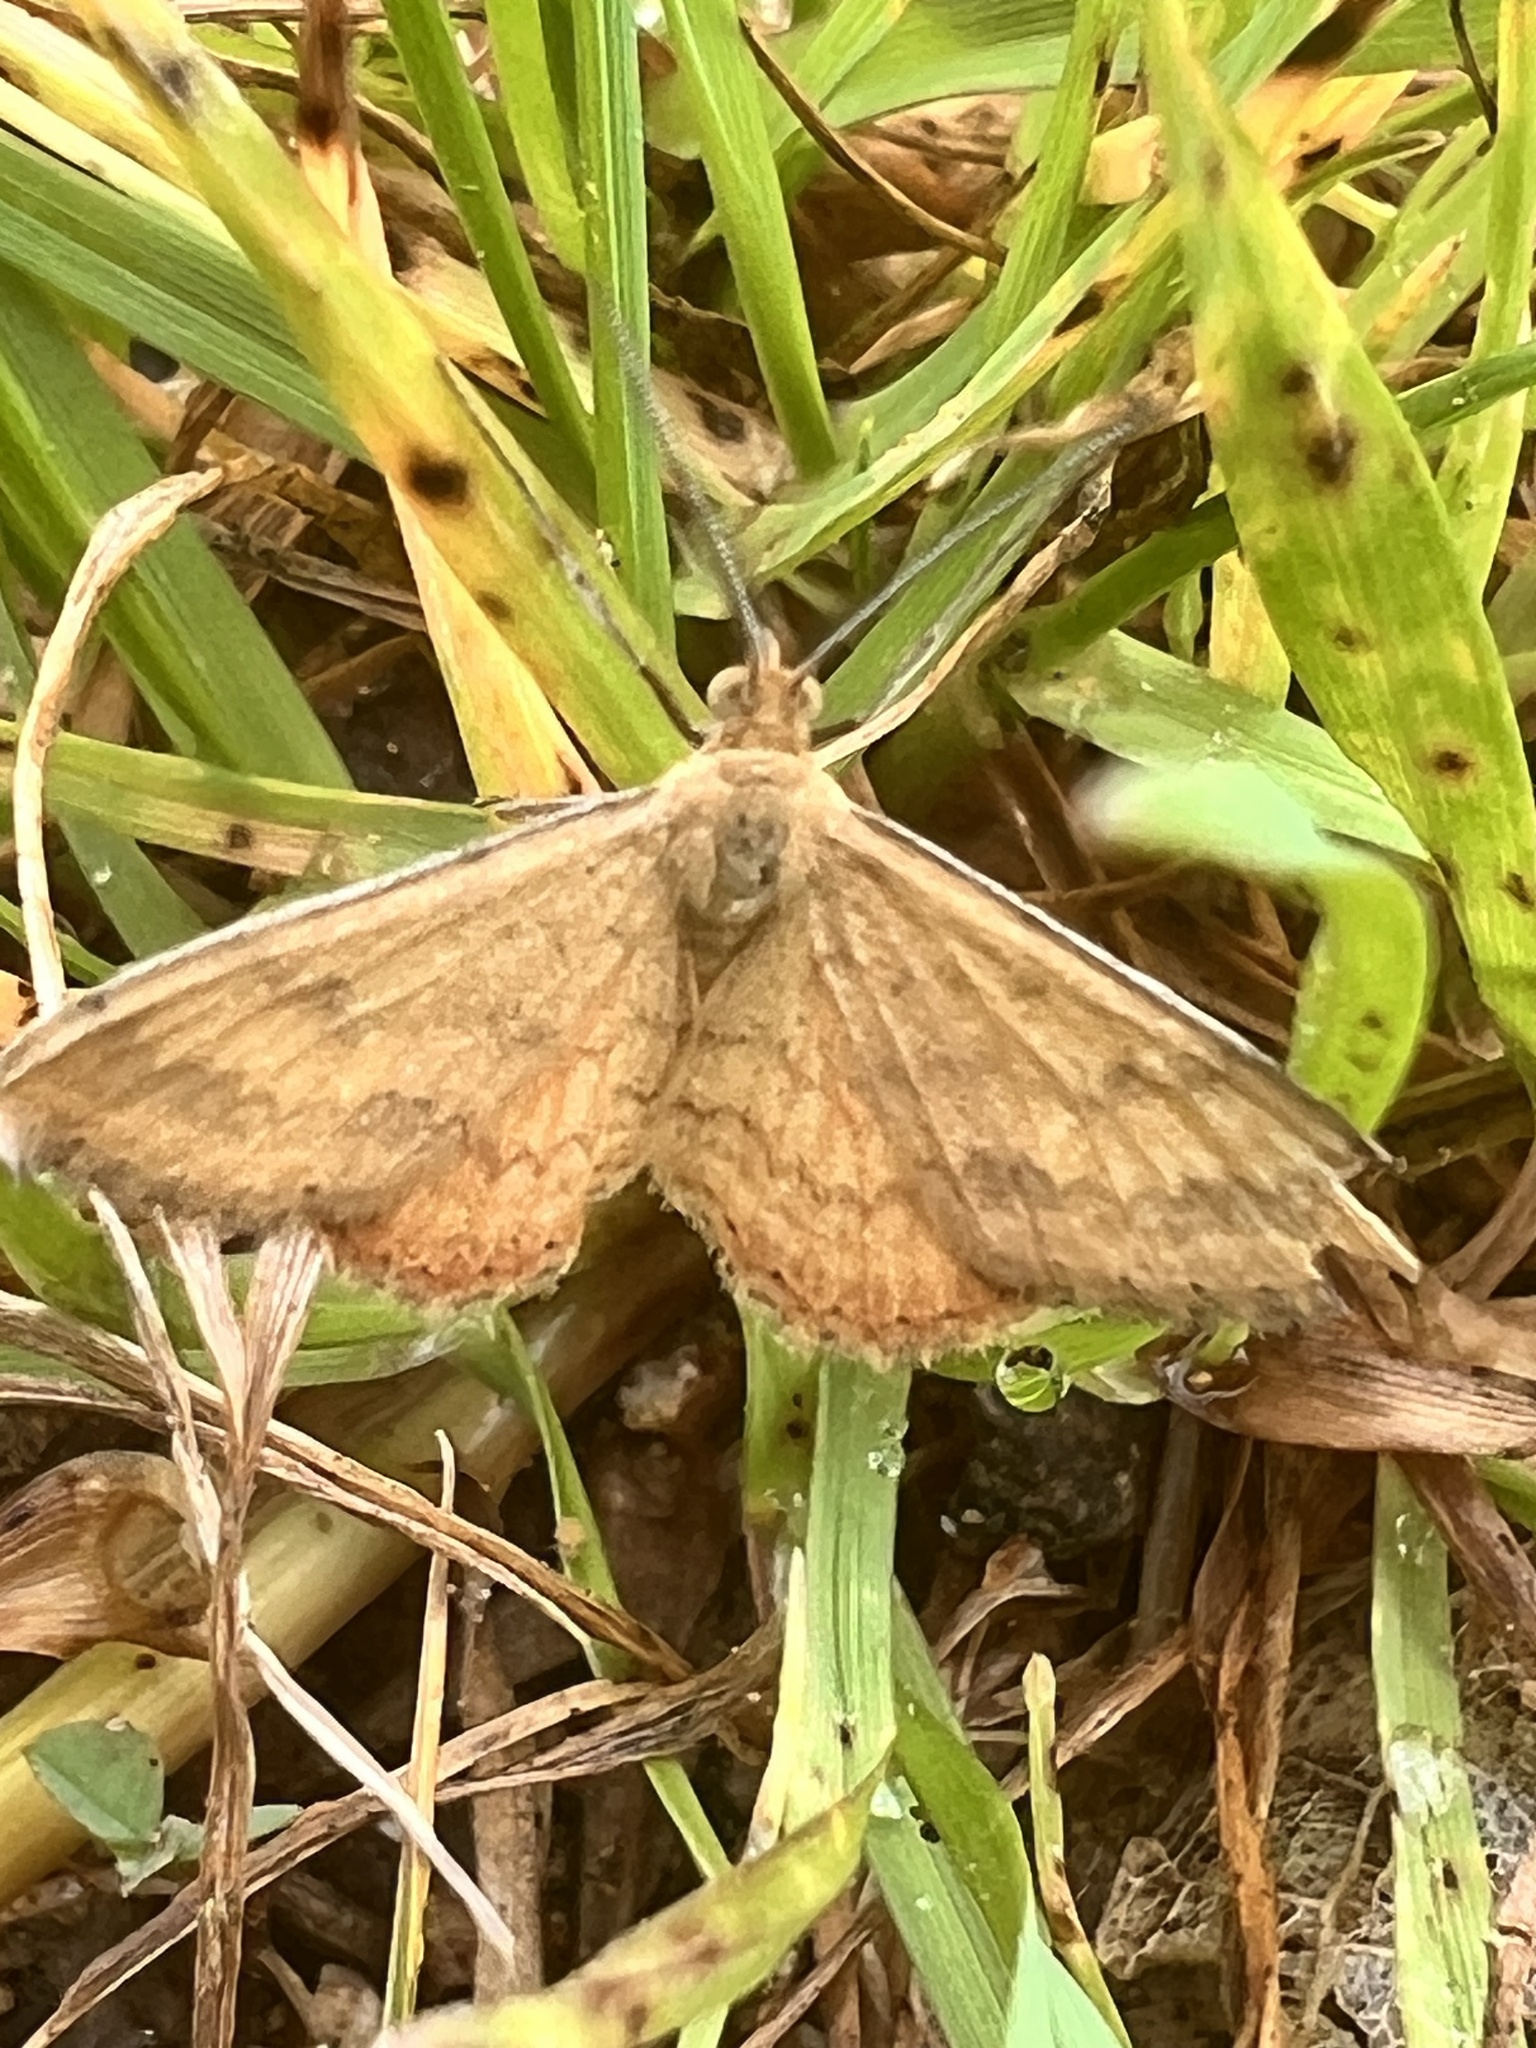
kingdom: Animalia
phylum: Arthropoda
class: Insecta
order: Lepidoptera
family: Geometridae
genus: Scopula
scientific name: Scopula rubraria
